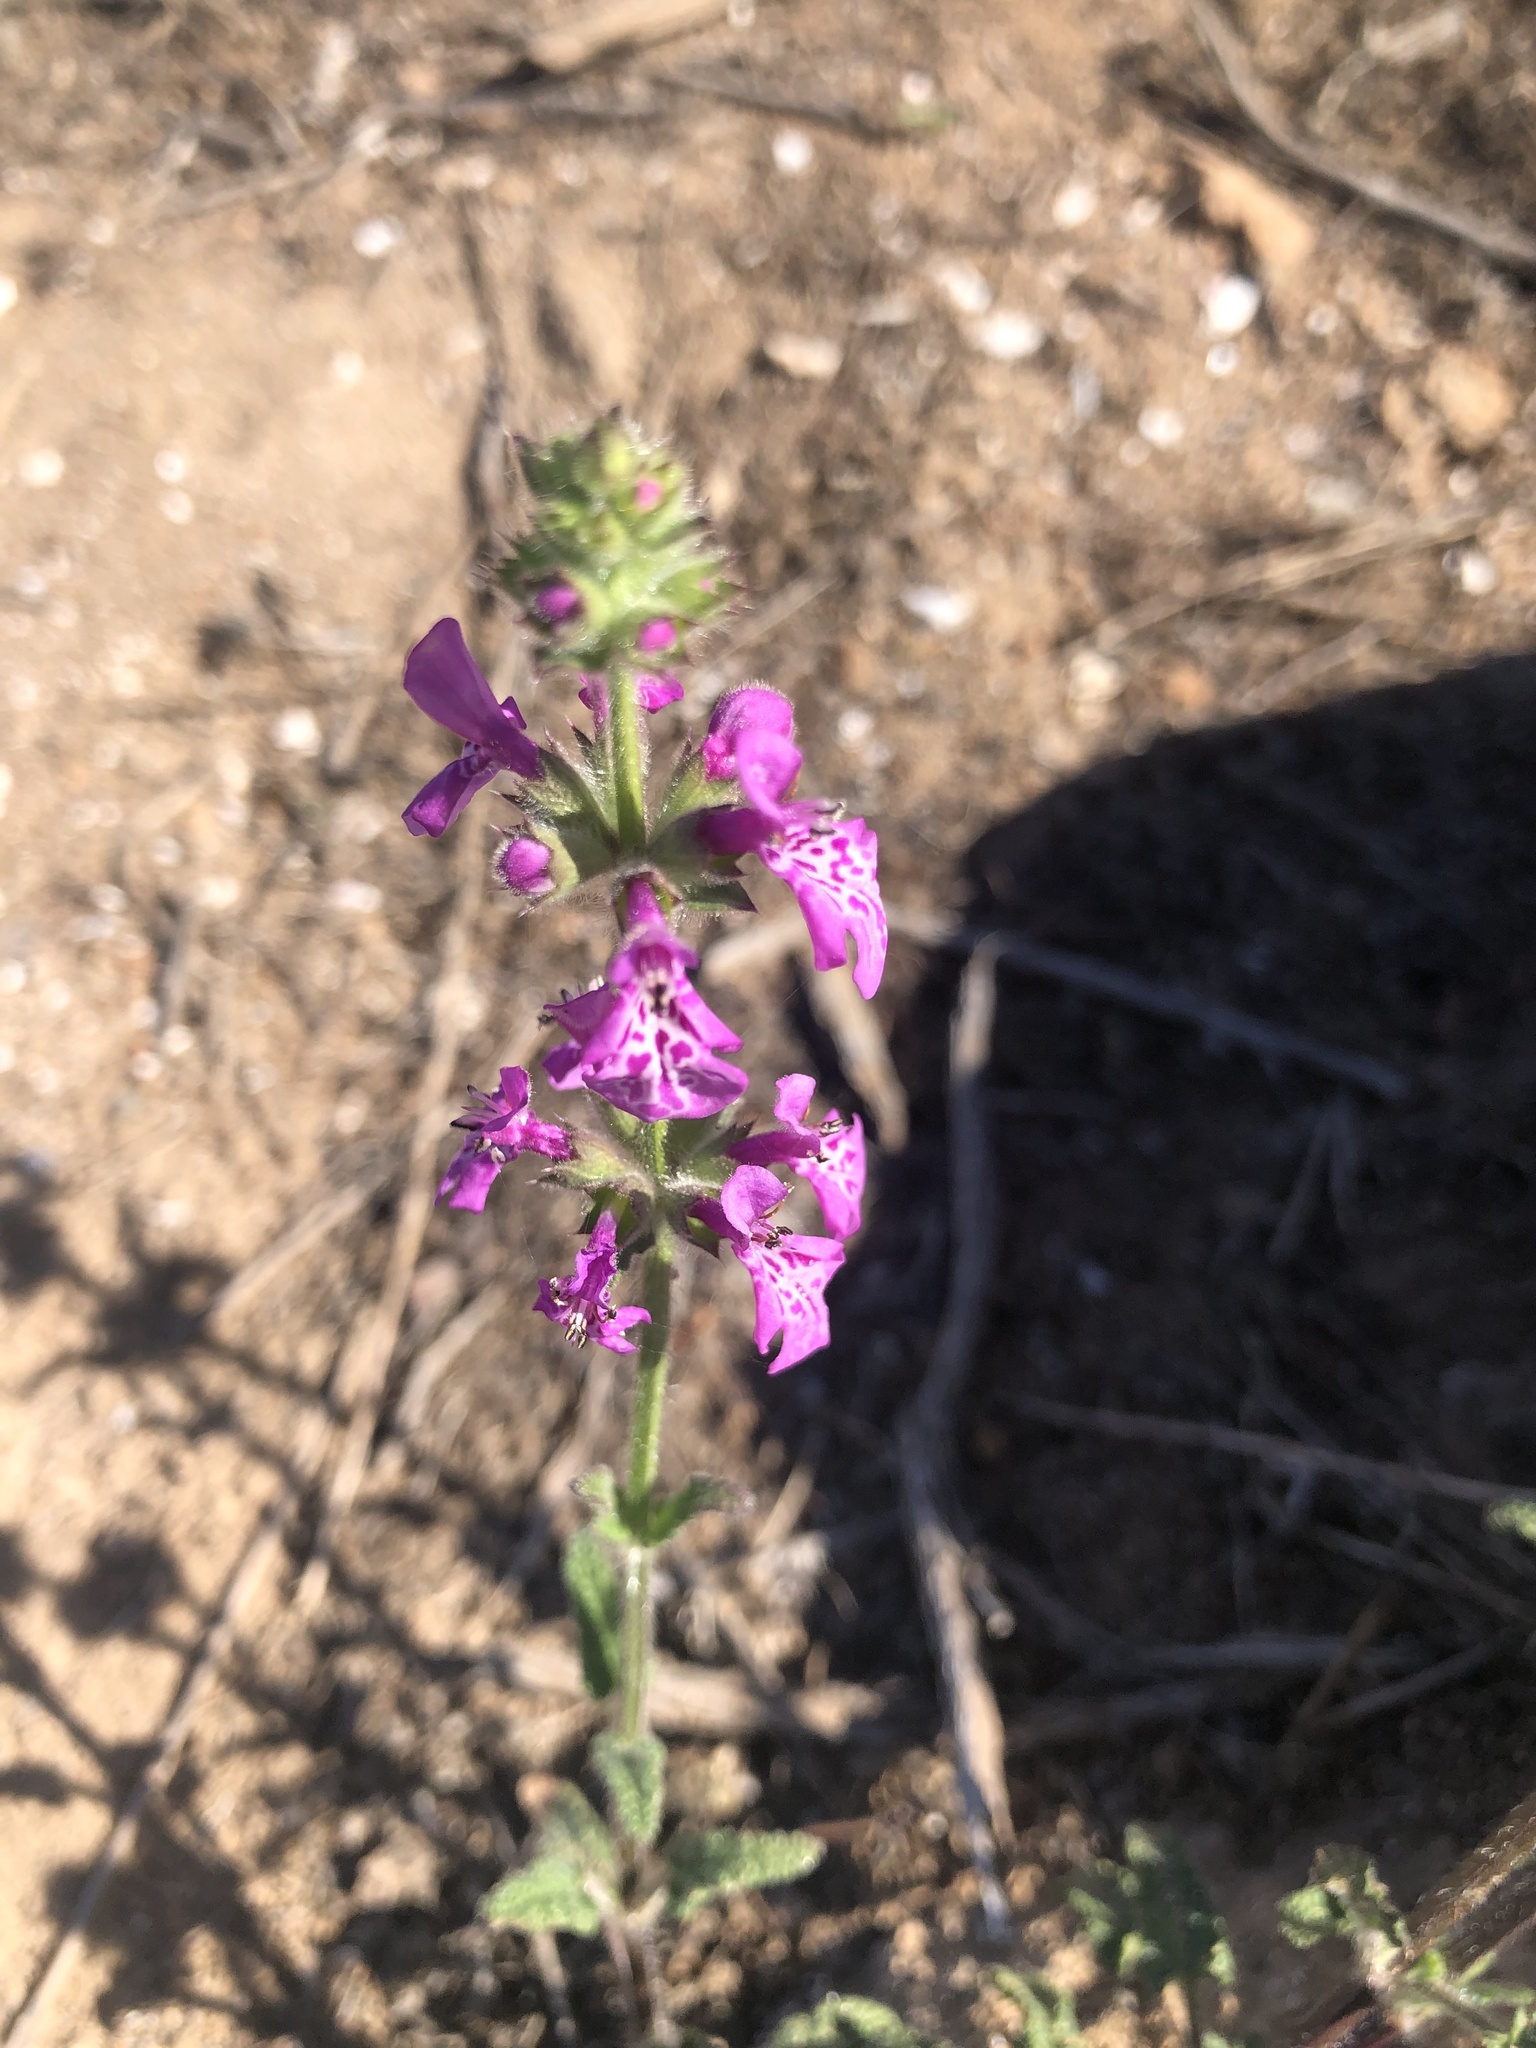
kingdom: Plantae
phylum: Tracheophyta
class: Magnoliopsida
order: Lamiales
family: Lamiaceae
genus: Stachys
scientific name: Stachys grandidentata
